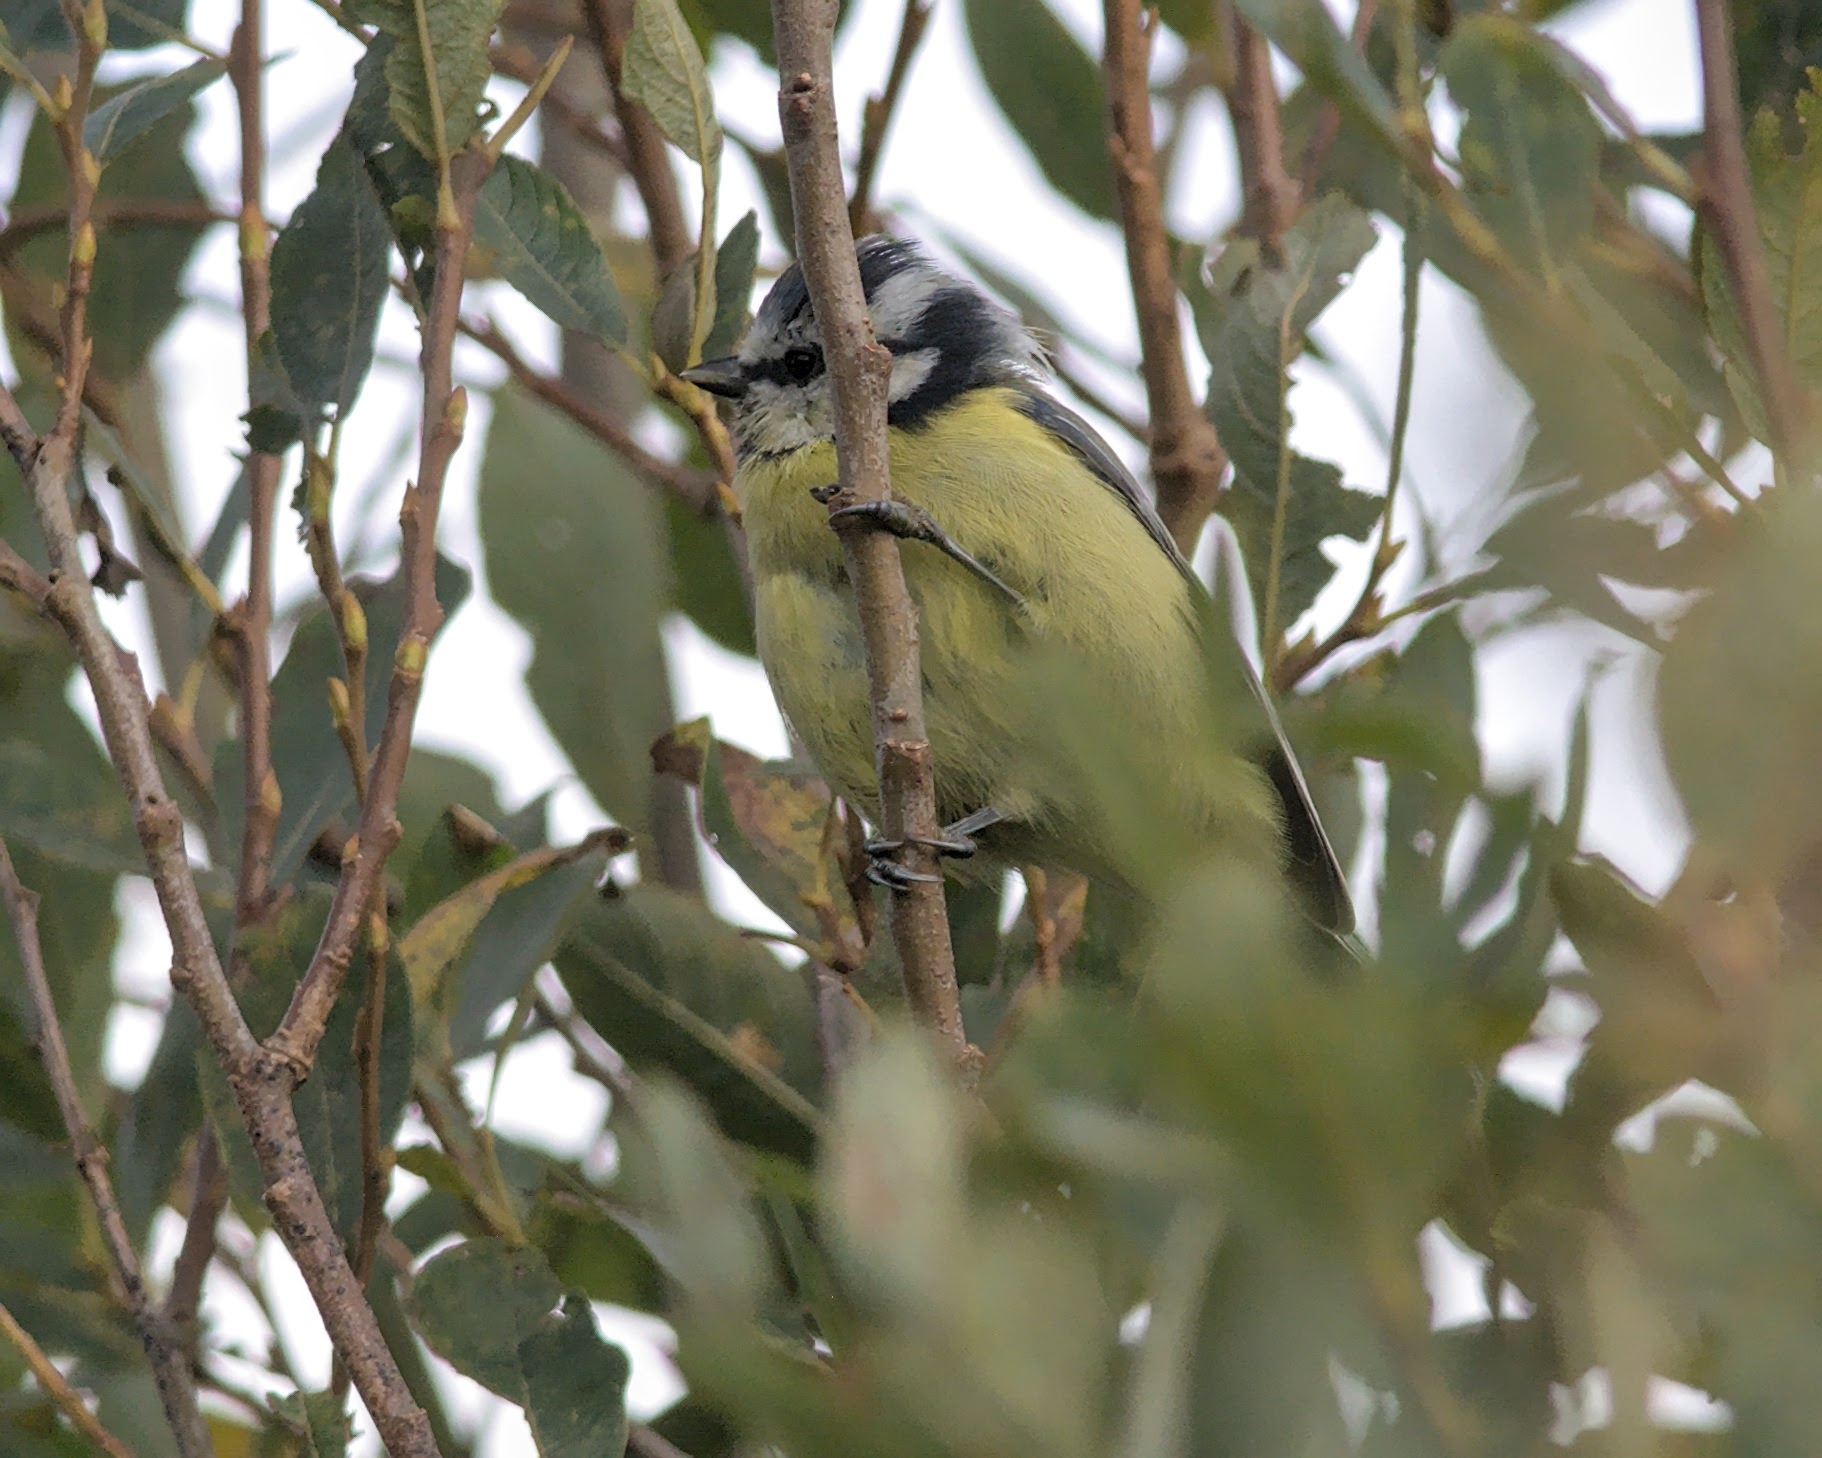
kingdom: Animalia
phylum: Chordata
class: Aves
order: Passeriformes
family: Paridae
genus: Cyanistes
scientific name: Cyanistes caeruleus
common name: Eurasian blue tit
